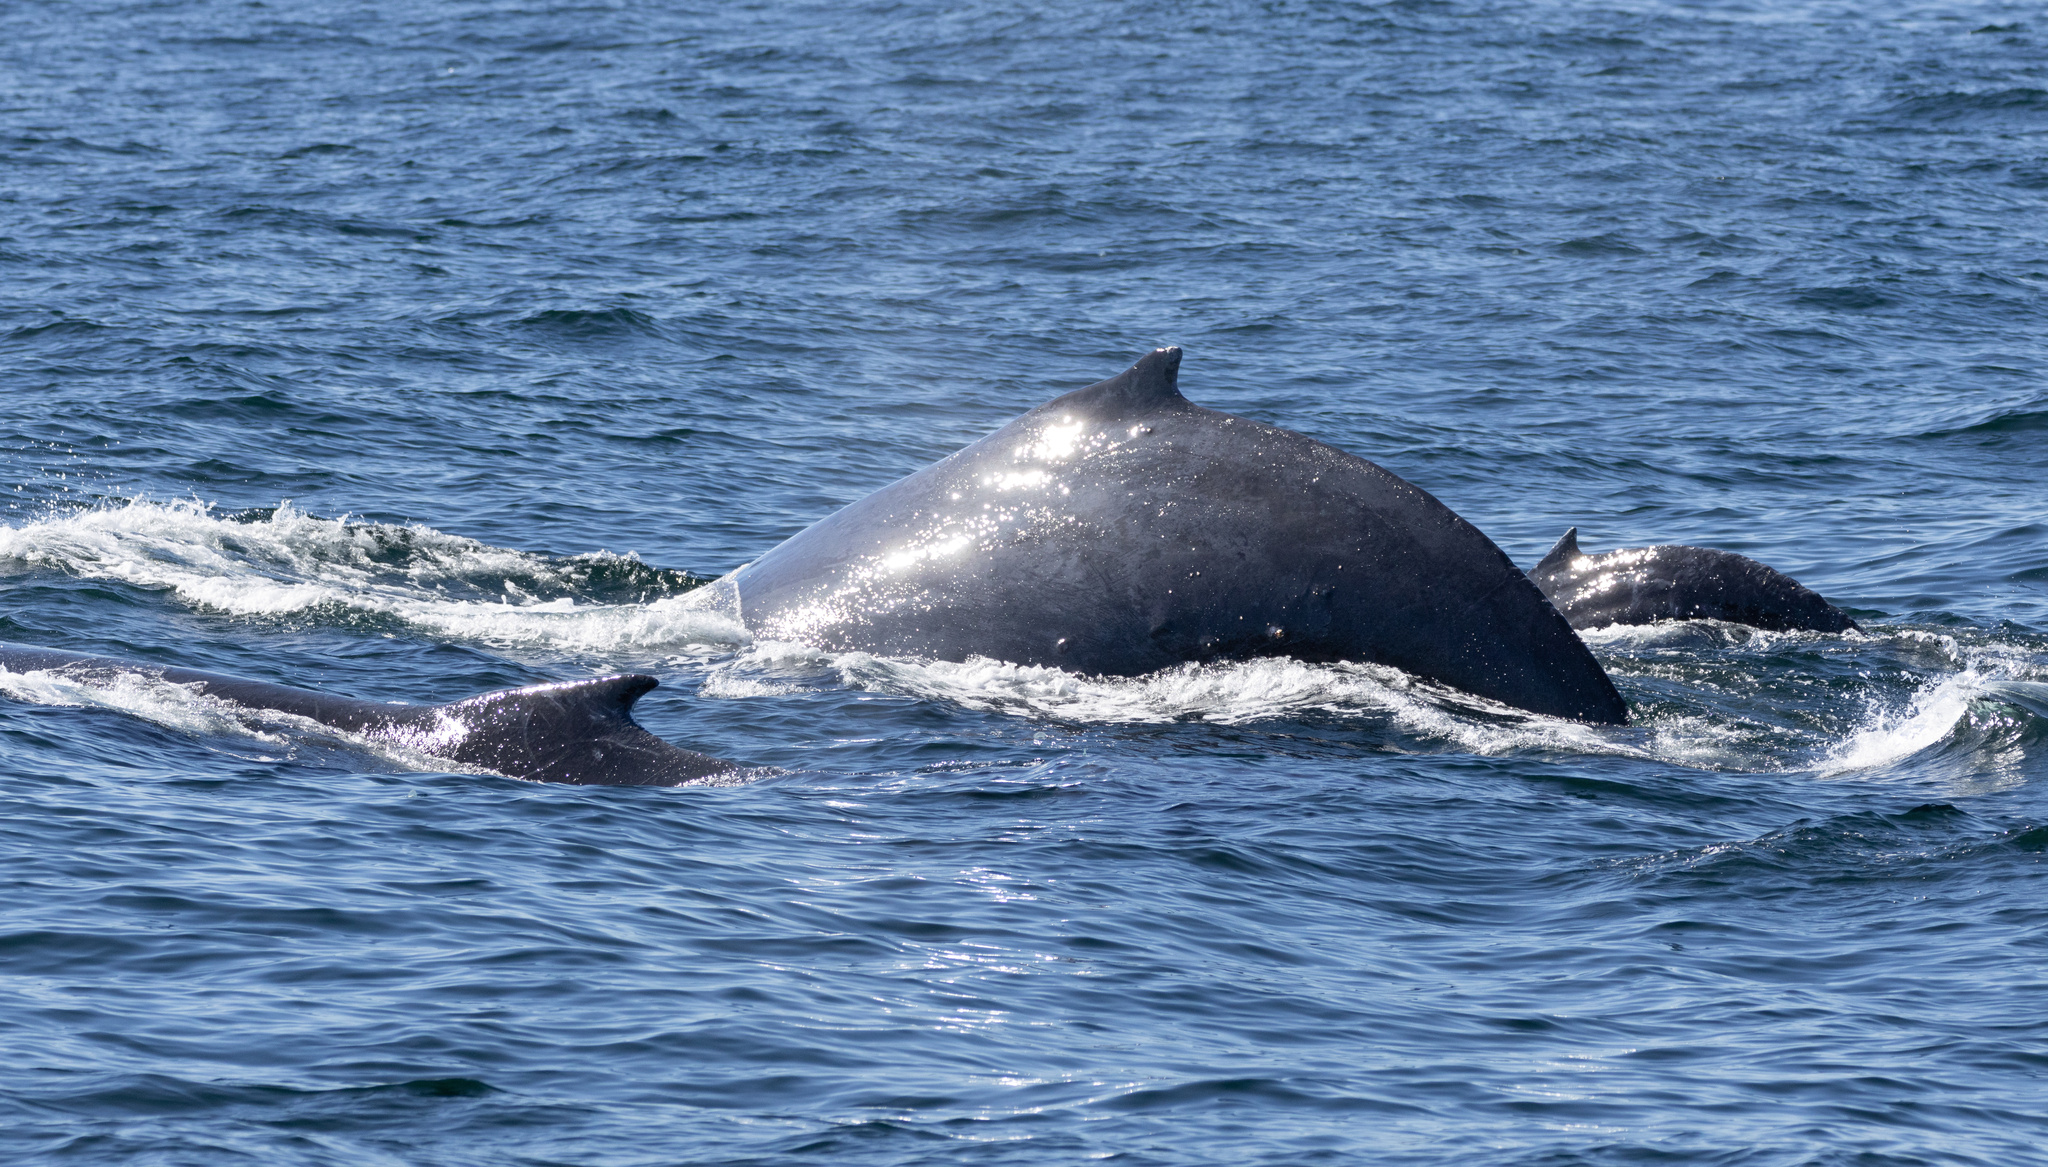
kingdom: Animalia
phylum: Chordata
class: Mammalia
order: Cetacea
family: Balaenopteridae
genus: Megaptera
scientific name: Megaptera novaeangliae
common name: Humpback whale
